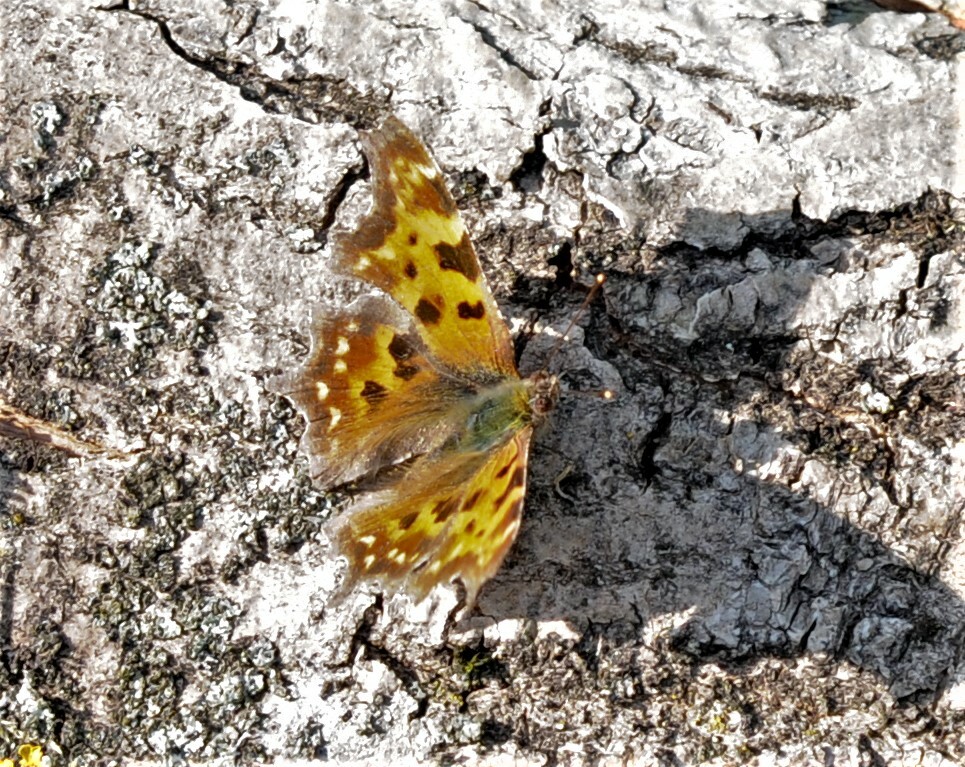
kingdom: Animalia
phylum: Arthropoda
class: Insecta
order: Lepidoptera
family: Nymphalidae
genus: Polygonia
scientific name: Polygonia c-album
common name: Comma
